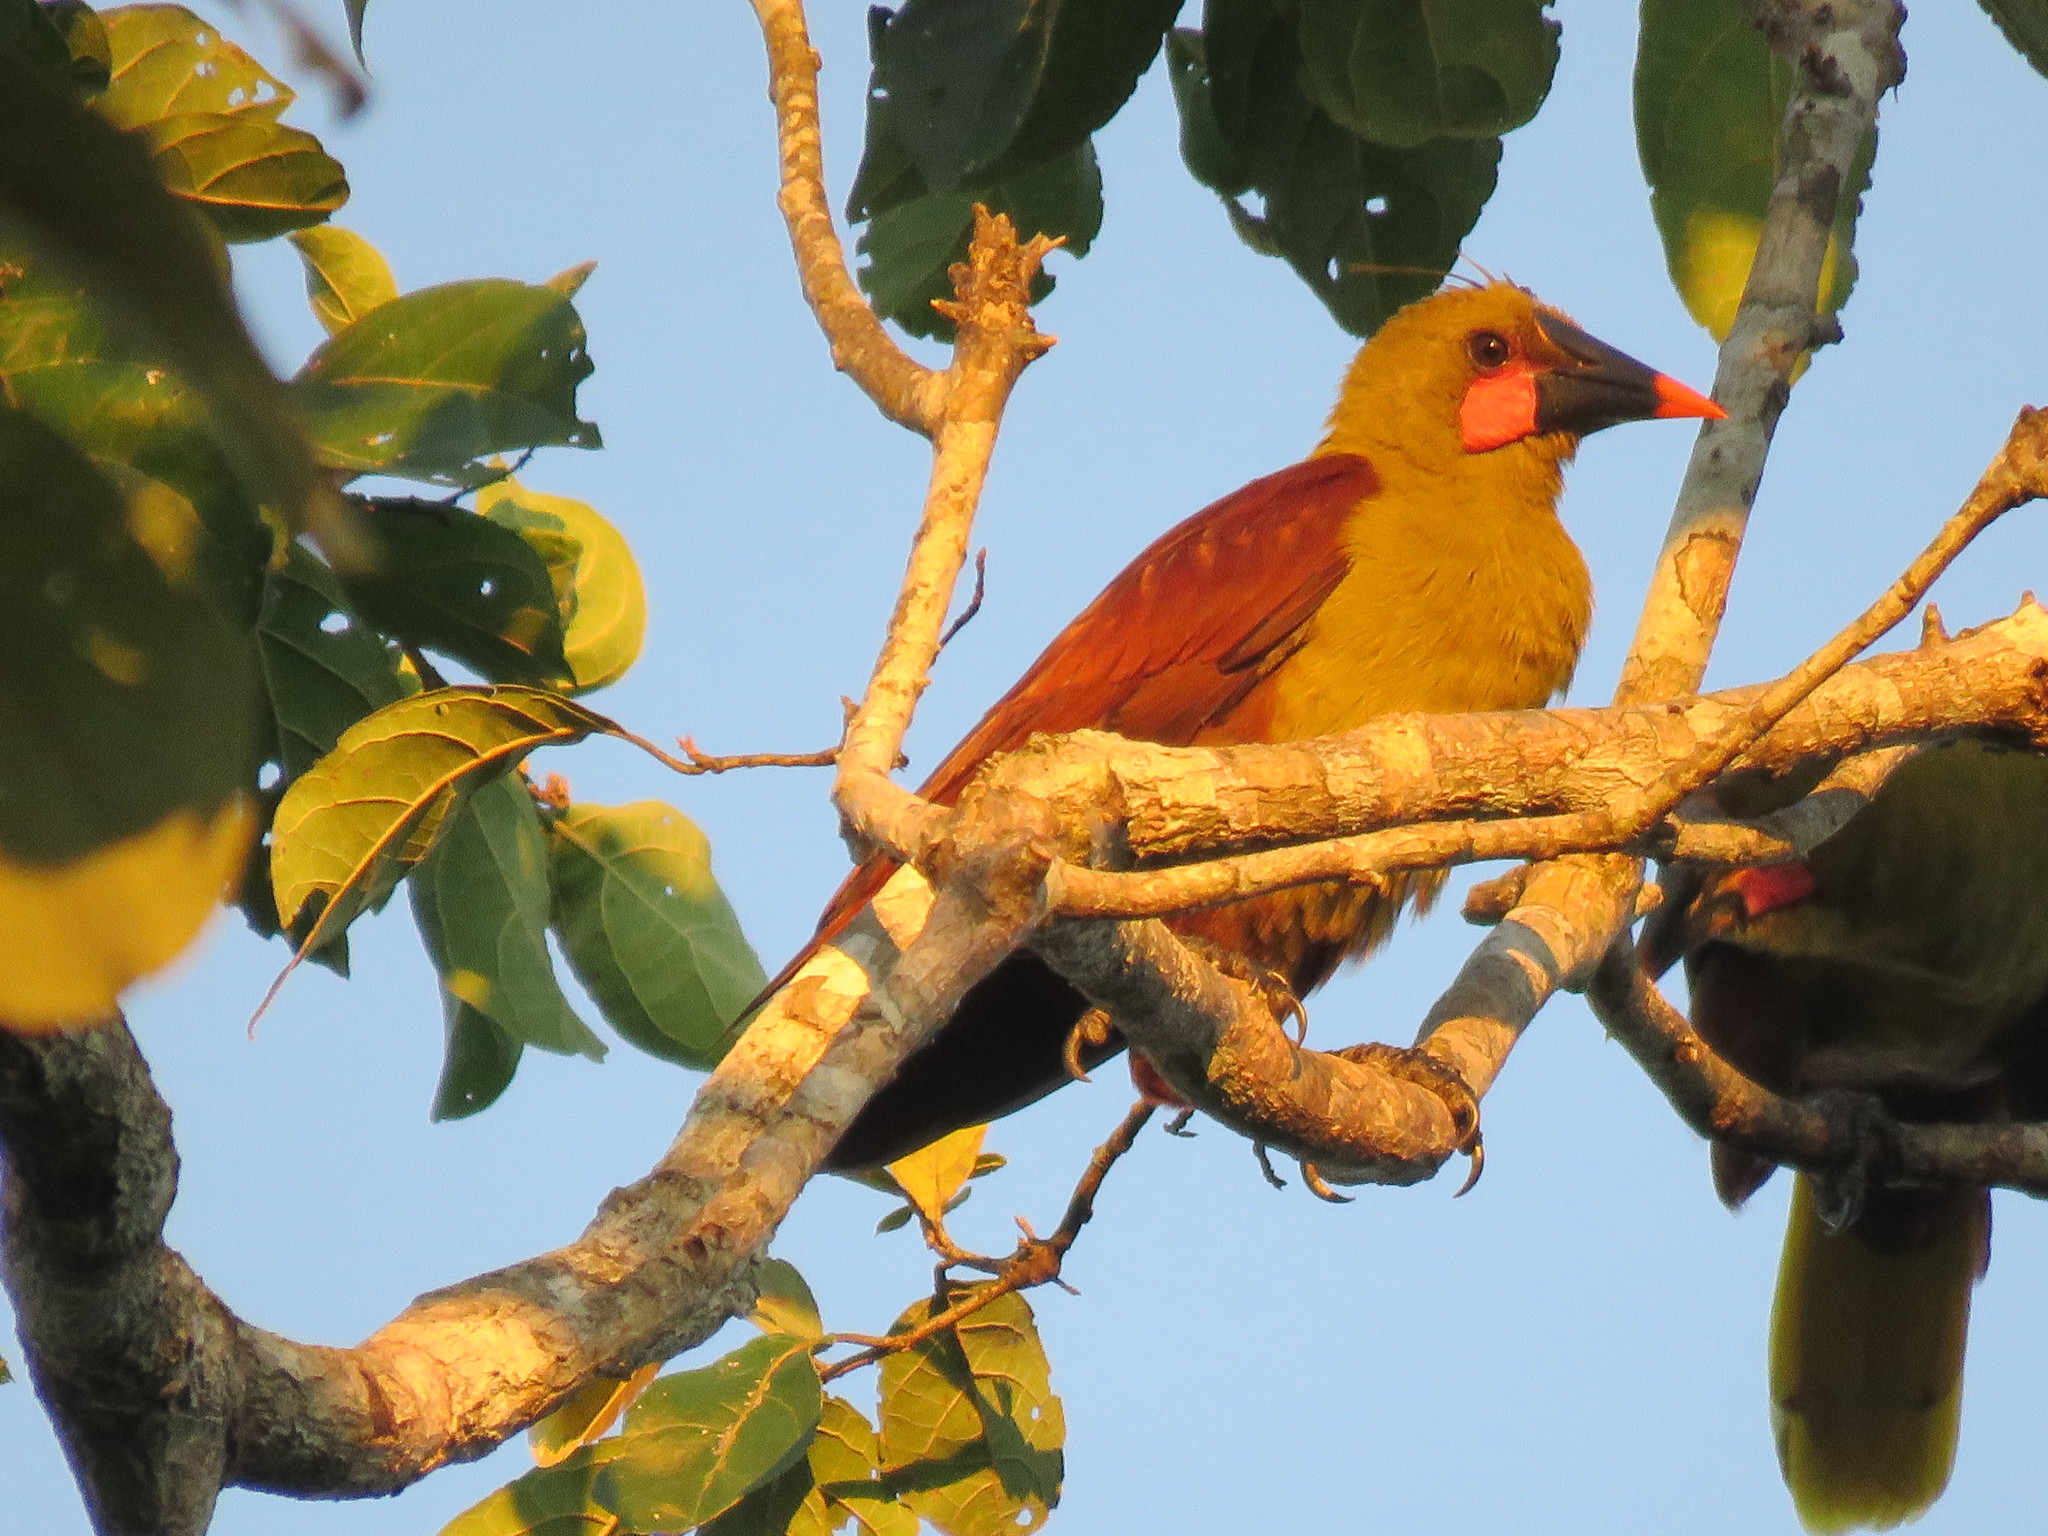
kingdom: Animalia
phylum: Chordata
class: Aves
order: Passeriformes
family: Icteridae
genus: Psarocolius
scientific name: Psarocolius bifasciatus
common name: Olive oropendola
